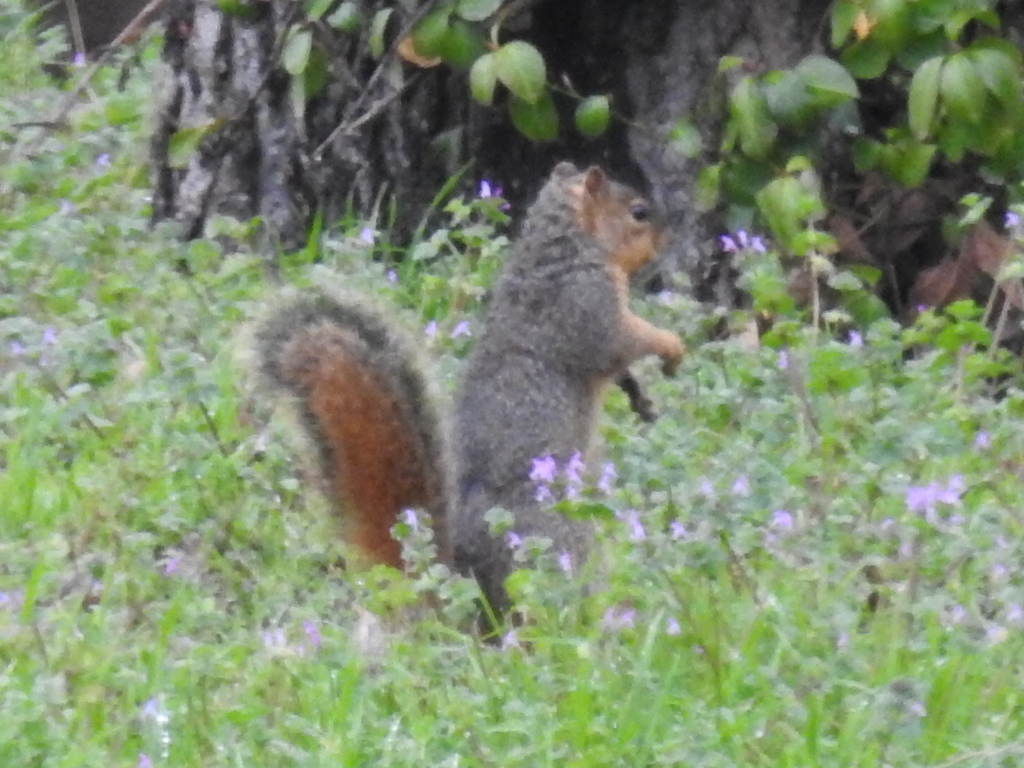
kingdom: Animalia
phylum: Chordata
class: Mammalia
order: Rodentia
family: Sciuridae
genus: Sciurus
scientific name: Sciurus niger
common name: Fox squirrel
